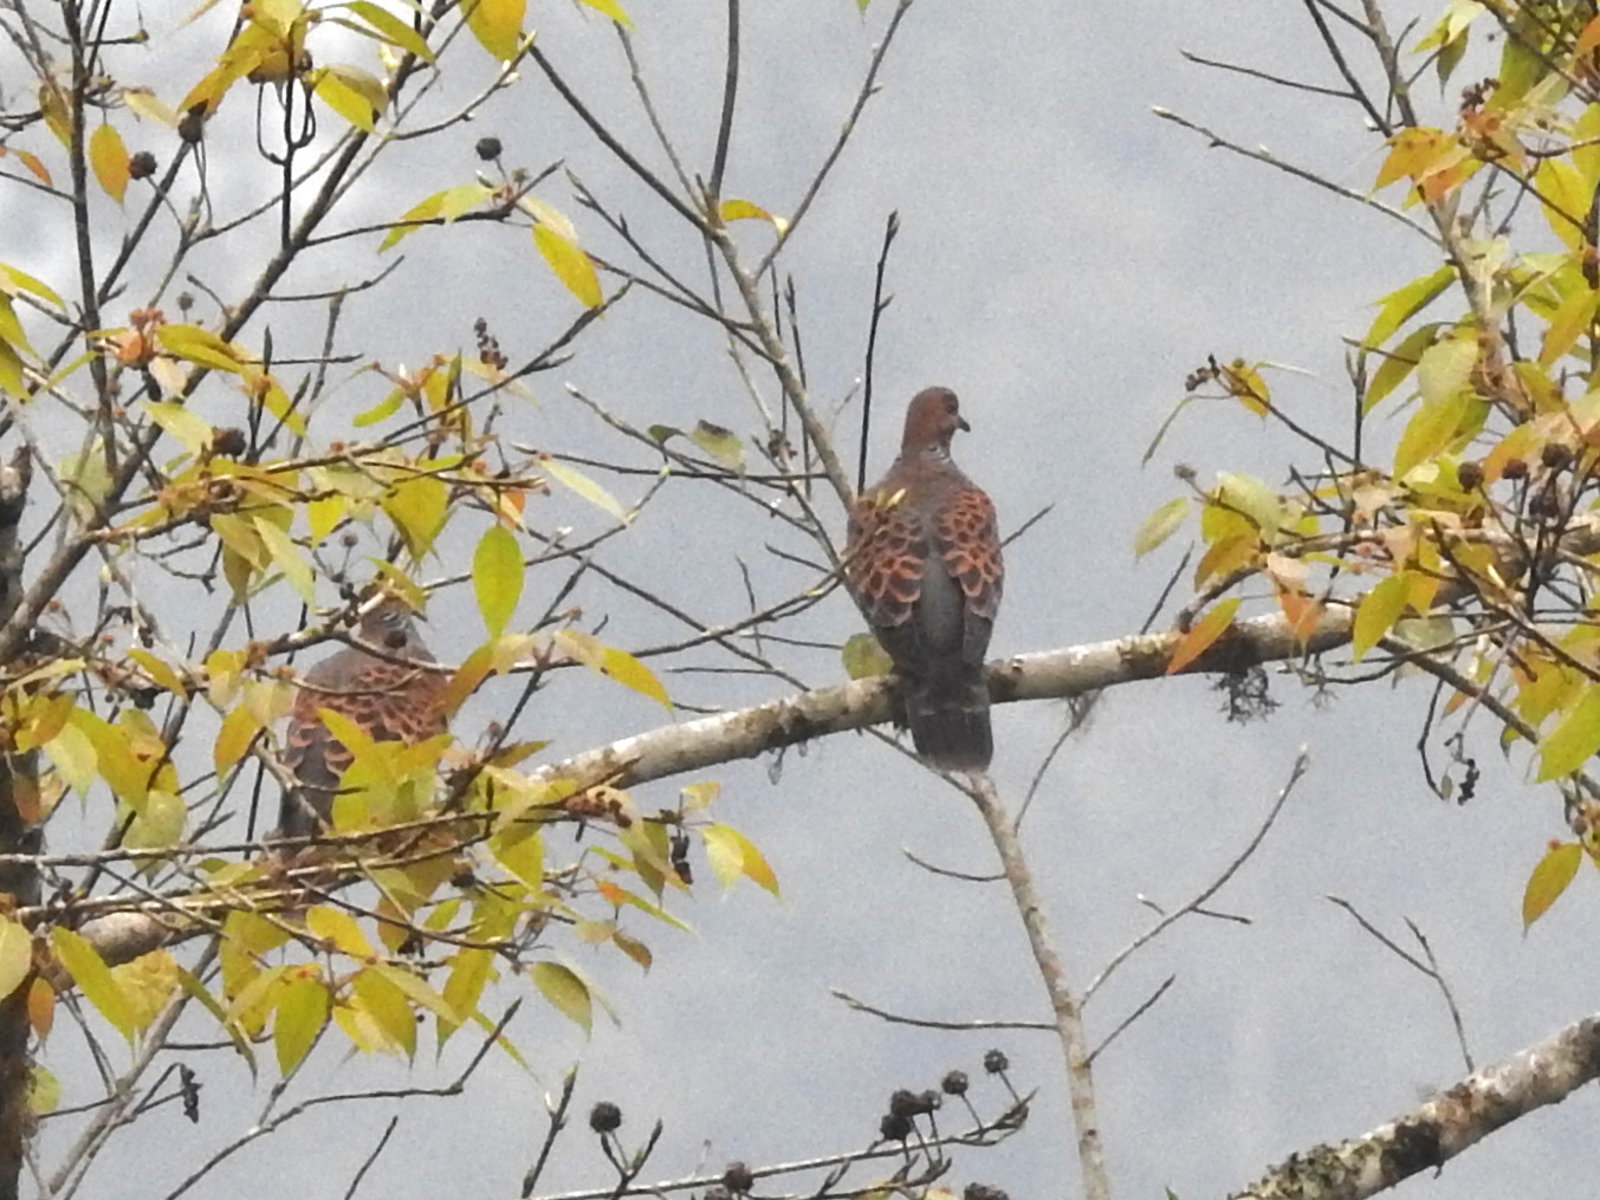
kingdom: Animalia
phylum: Chordata
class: Aves
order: Columbiformes
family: Columbidae
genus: Streptopelia
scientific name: Streptopelia orientalis
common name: Oriental turtle dove
